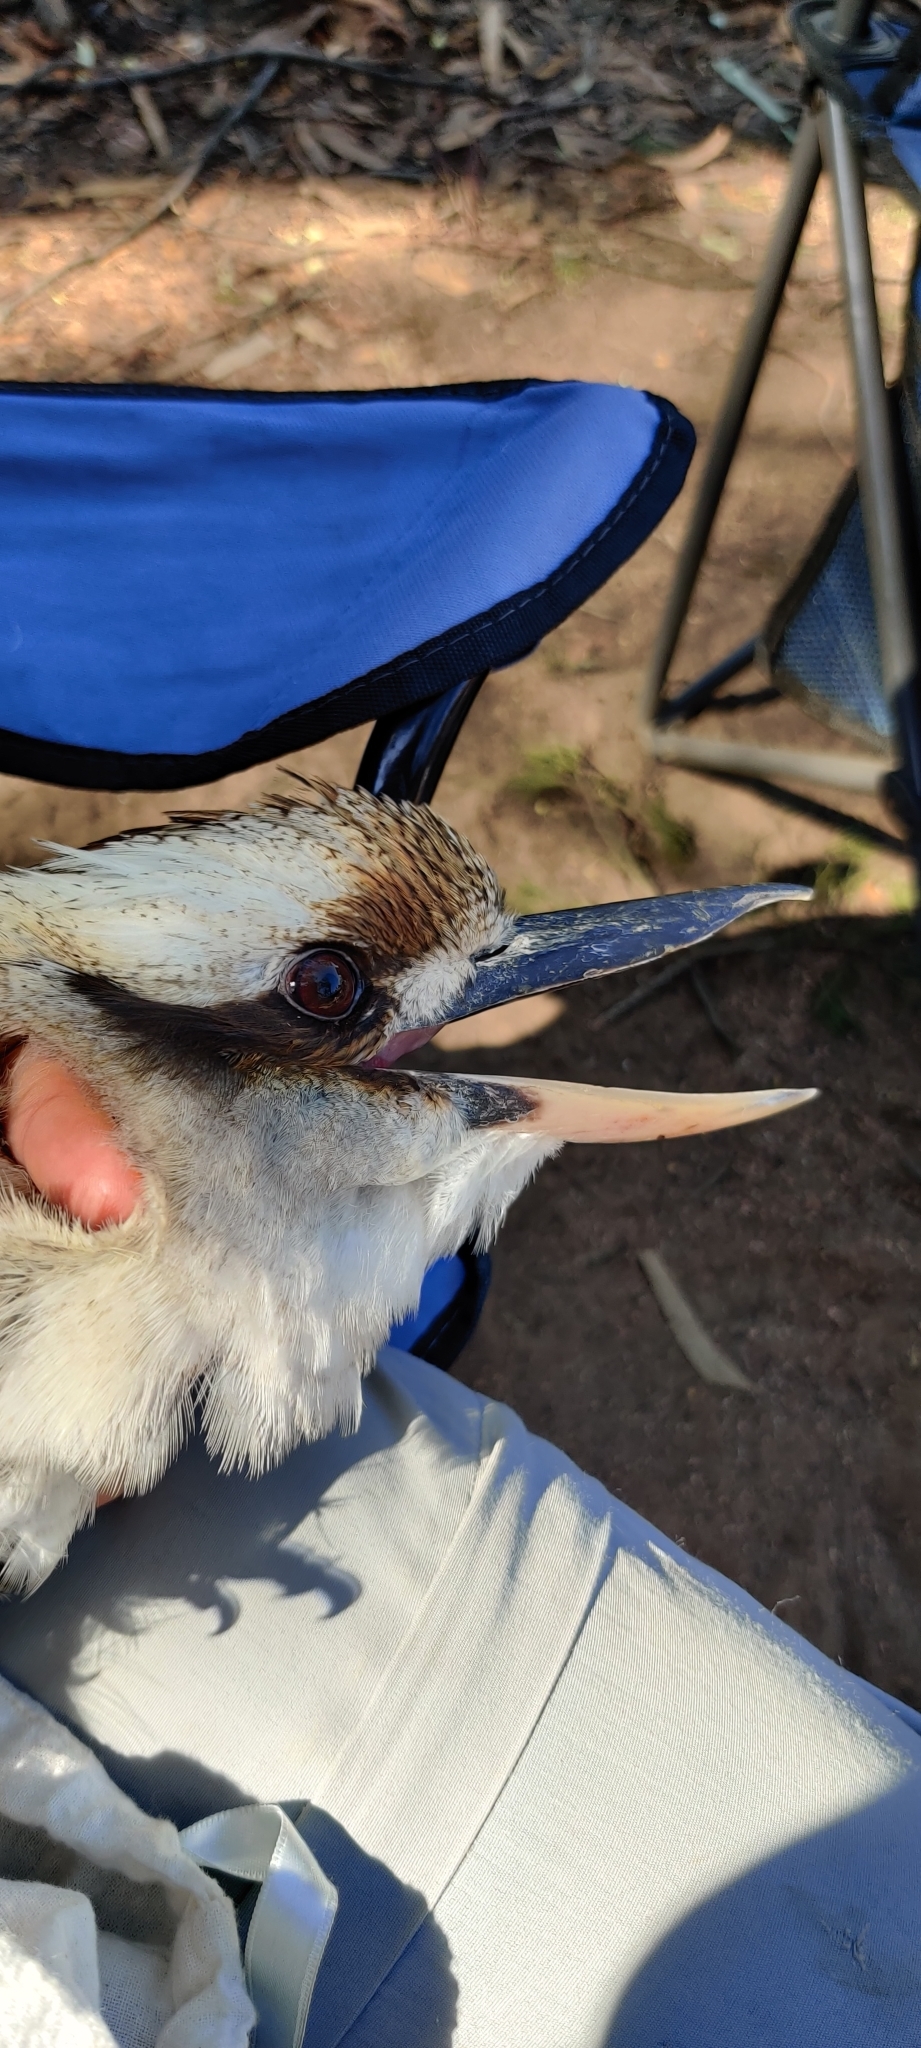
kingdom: Animalia
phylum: Chordata
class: Aves
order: Coraciiformes
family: Alcedinidae
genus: Dacelo
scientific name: Dacelo novaeguineae
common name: Laughing kookaburra
